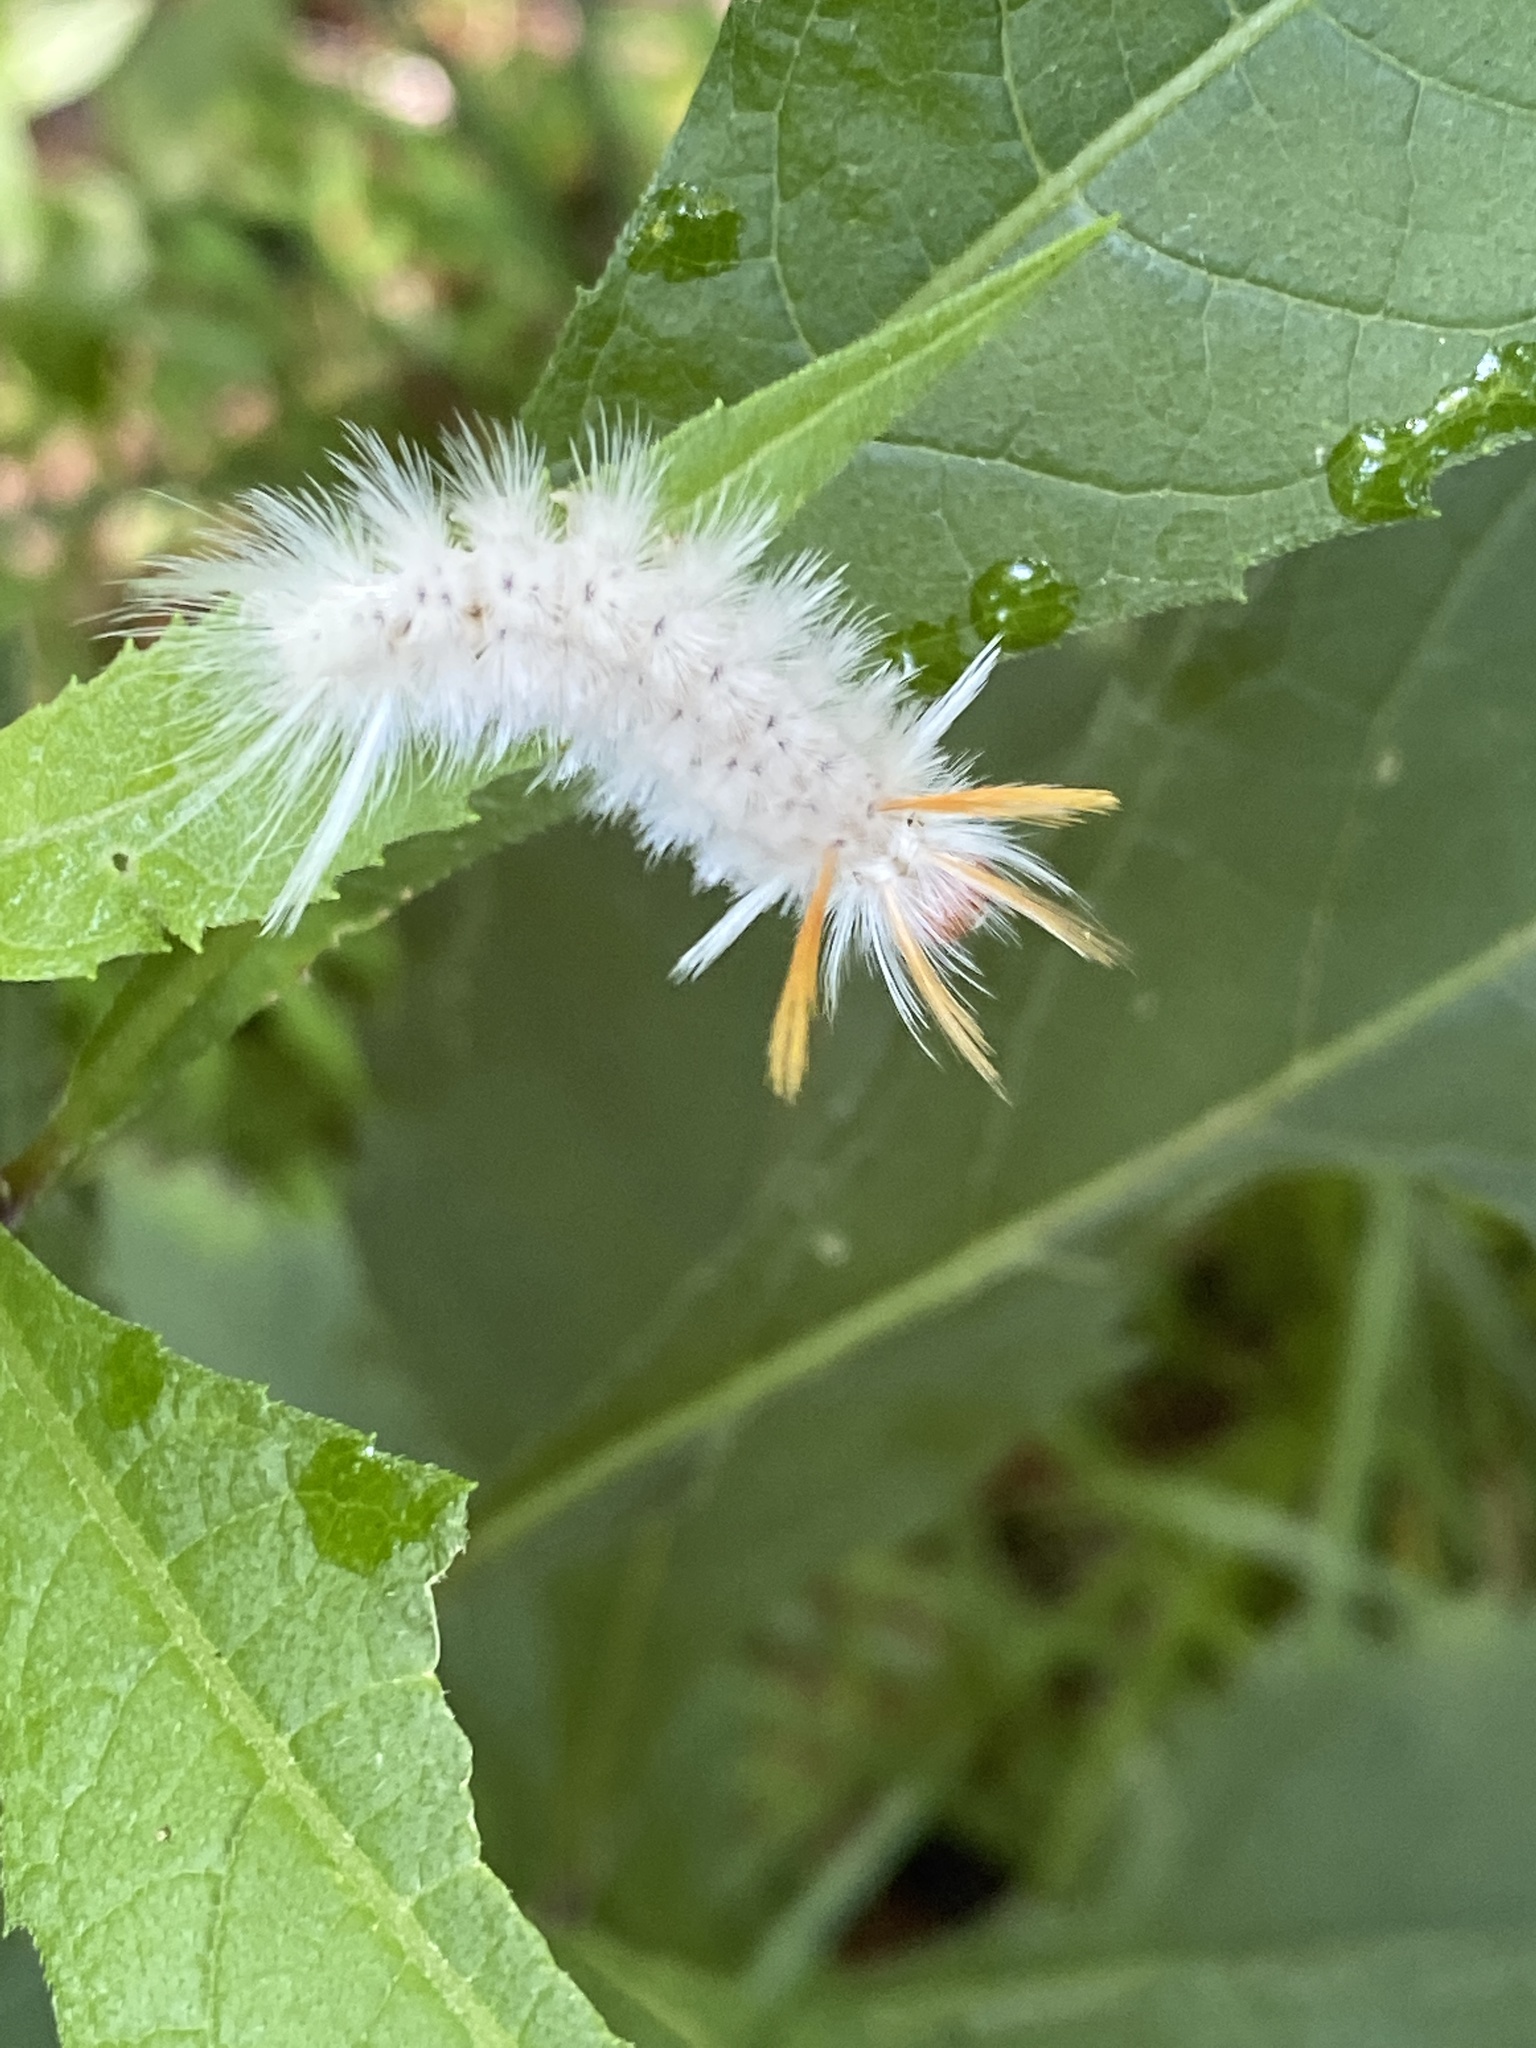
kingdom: Animalia
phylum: Arthropoda
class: Insecta
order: Lepidoptera
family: Erebidae
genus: Halysidota
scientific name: Halysidota harrisii
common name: Sycamore tussock moth
